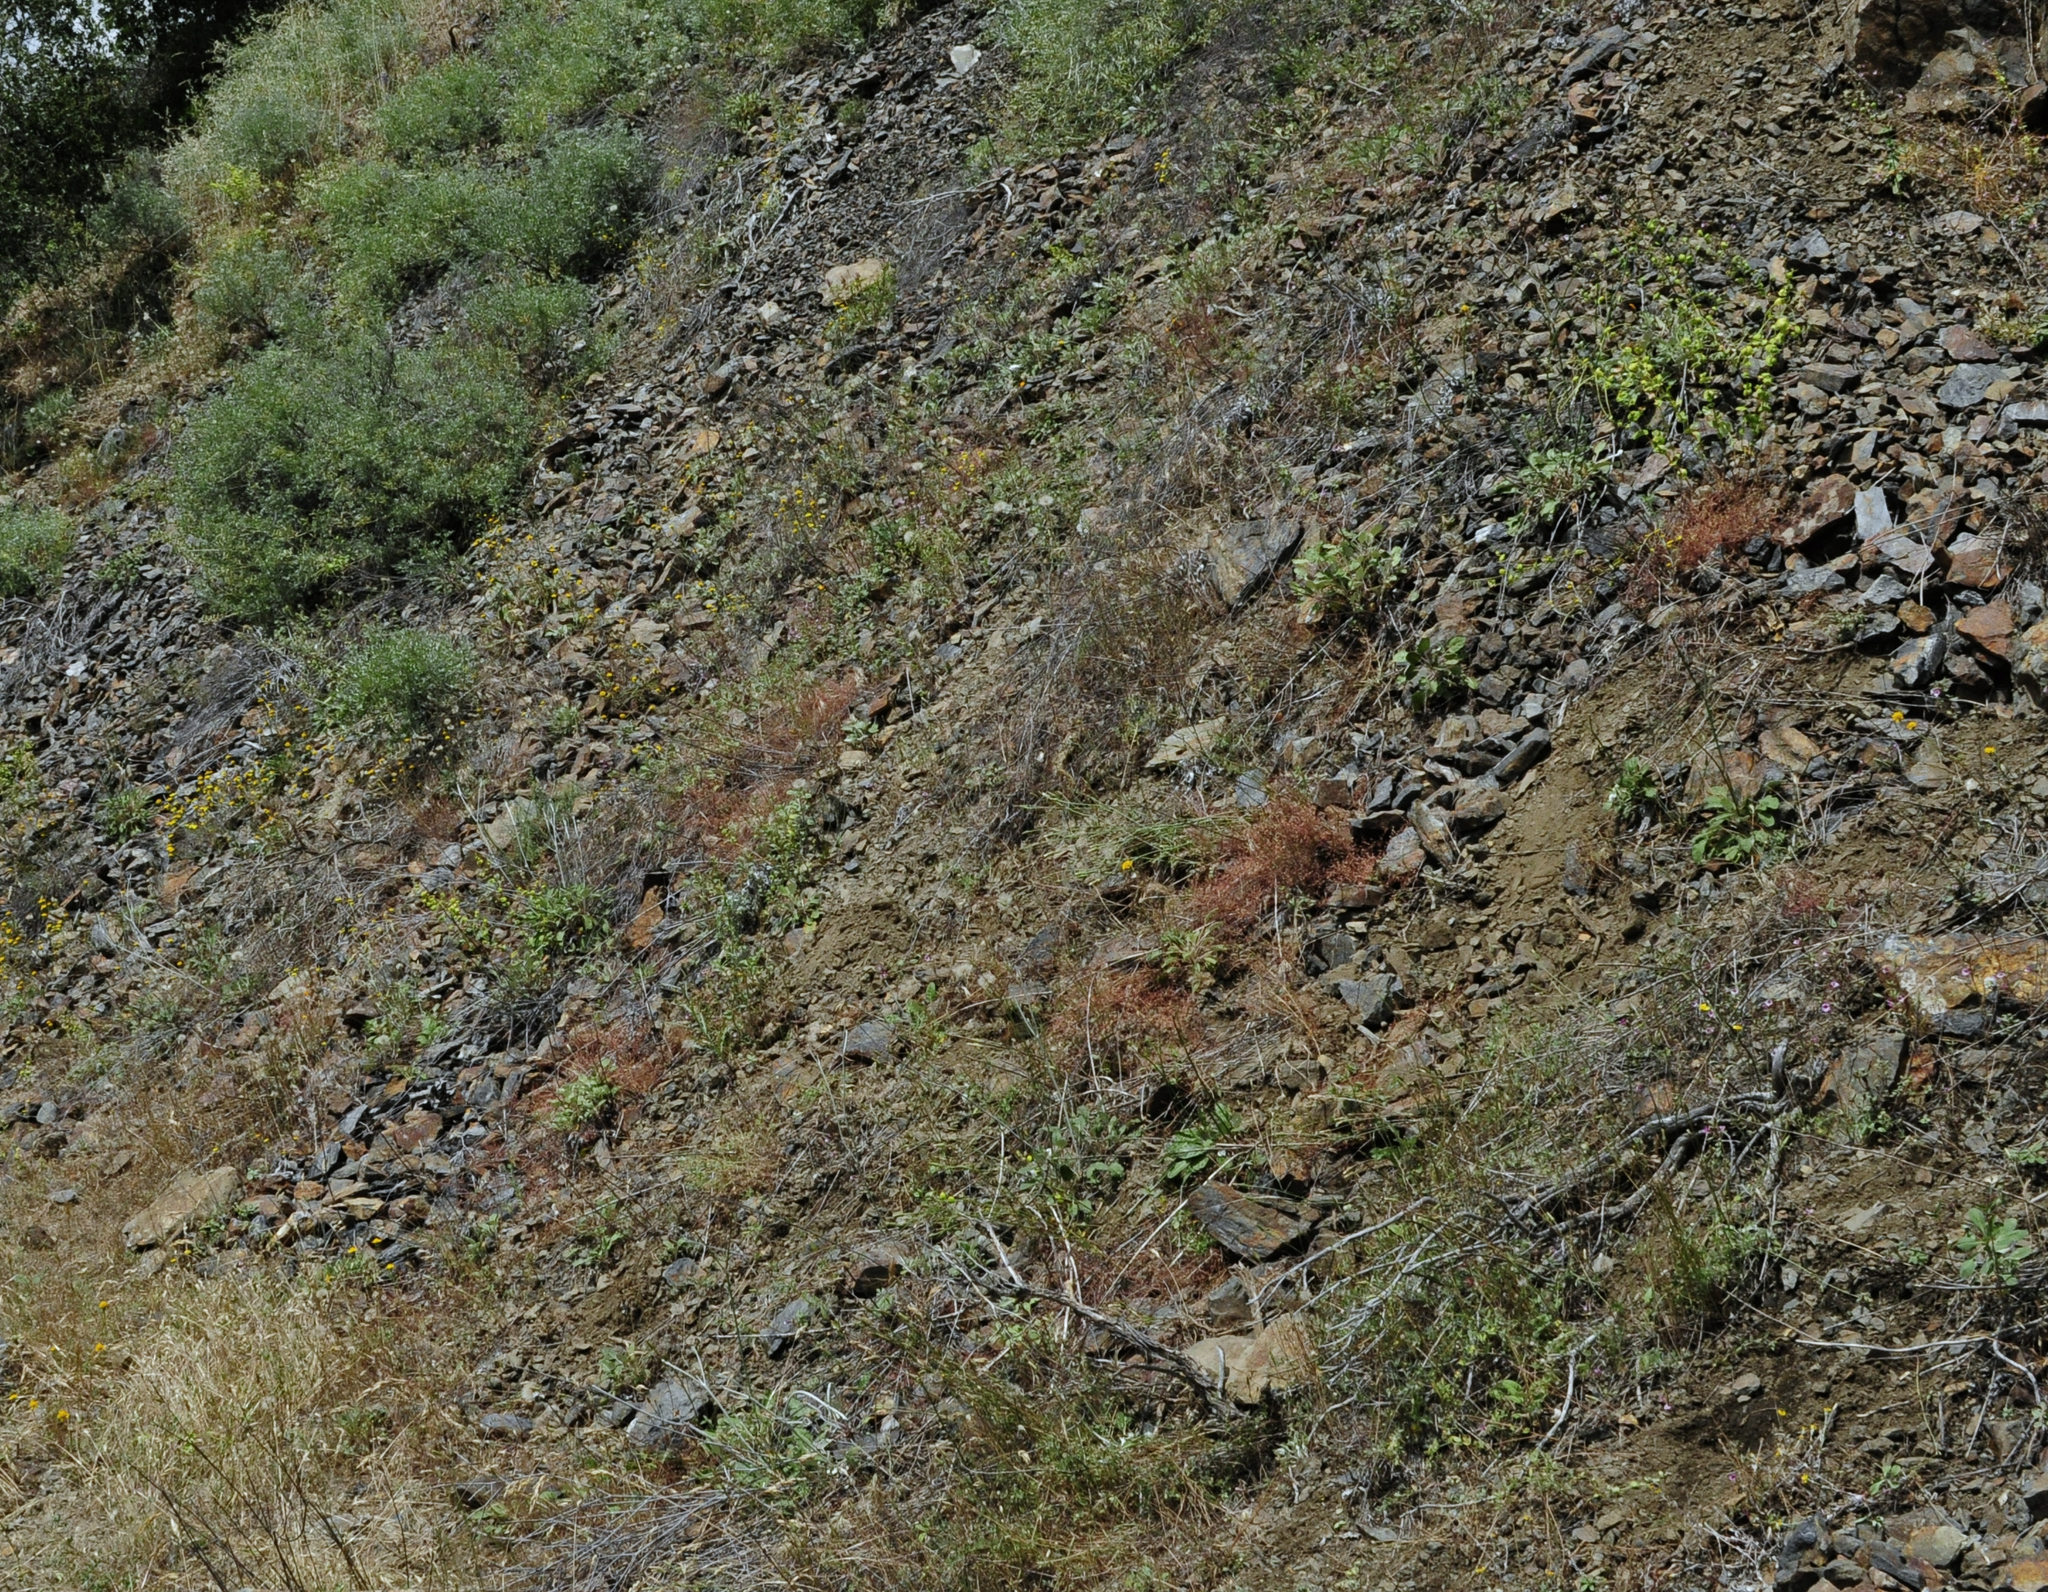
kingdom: Plantae
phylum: Tracheophyta
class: Magnoliopsida
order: Asterales
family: Asteraceae
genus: Eriophyllum
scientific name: Eriophyllum congdonii
